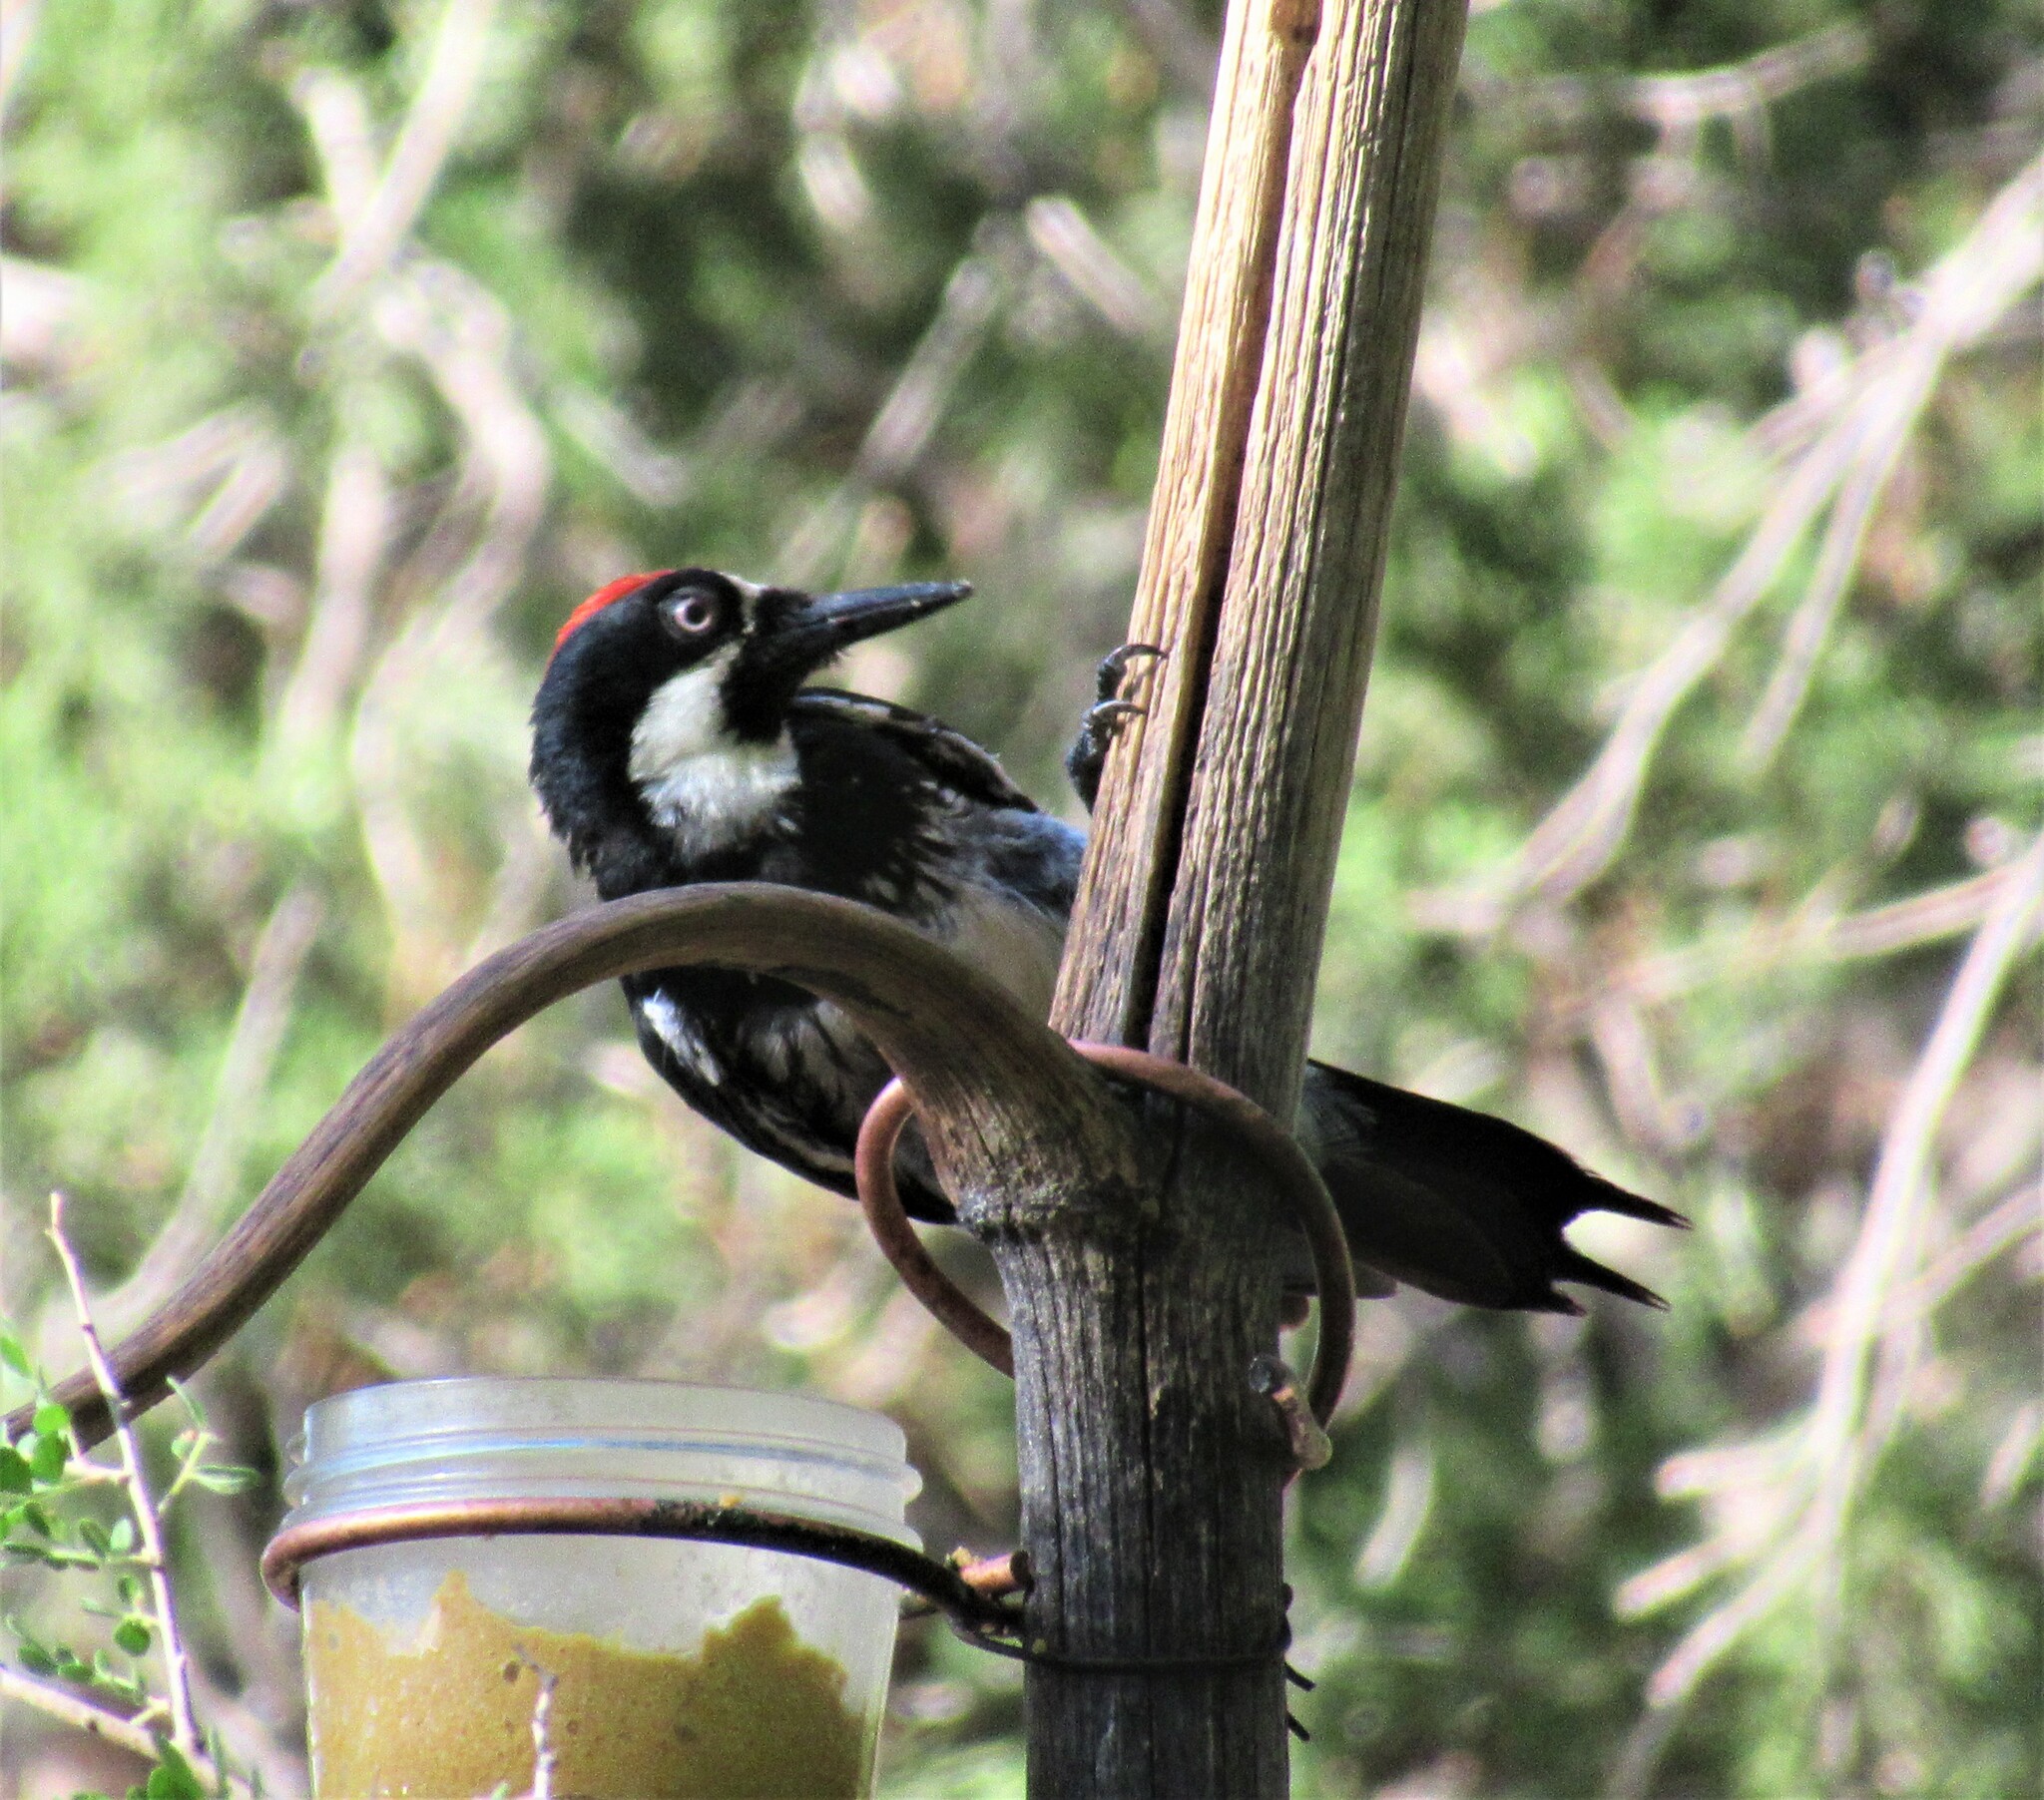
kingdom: Animalia
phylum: Chordata
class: Aves
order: Piciformes
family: Picidae
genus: Melanerpes
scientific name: Melanerpes formicivorus
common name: Acorn woodpecker
